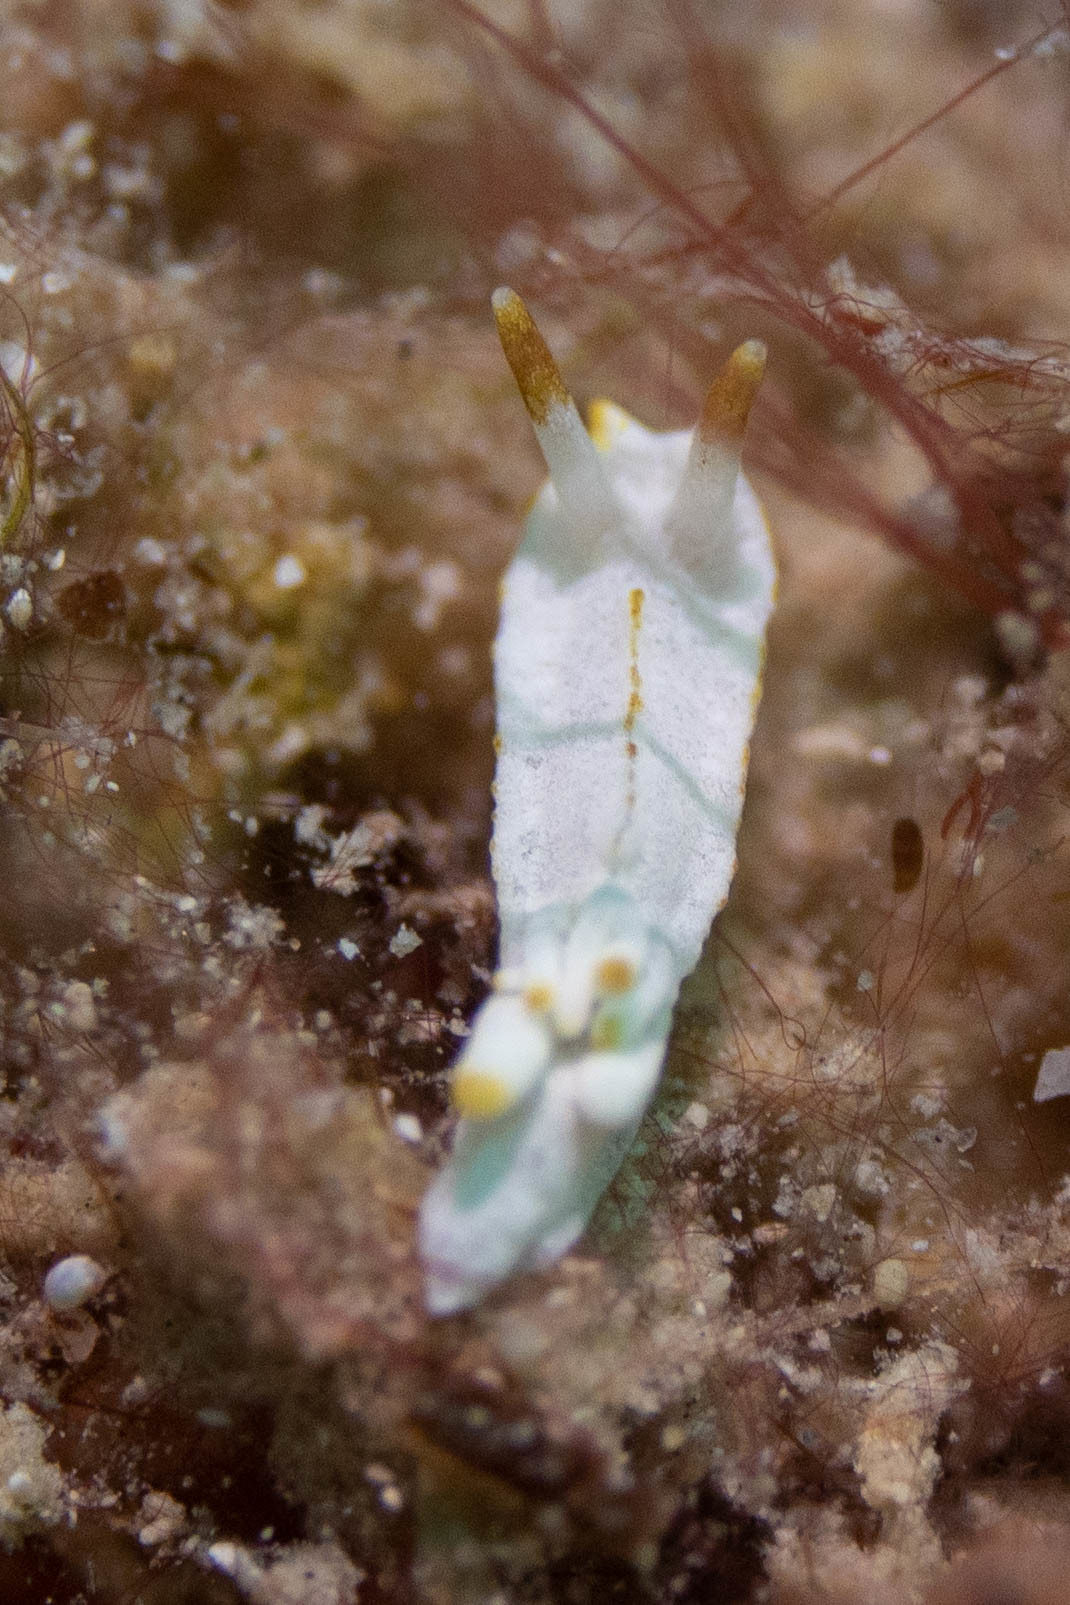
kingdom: Animalia
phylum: Mollusca
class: Gastropoda
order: Nudibranchia
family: Goniodorididae
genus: Goniodoridella
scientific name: Goniodoridella savignyi
